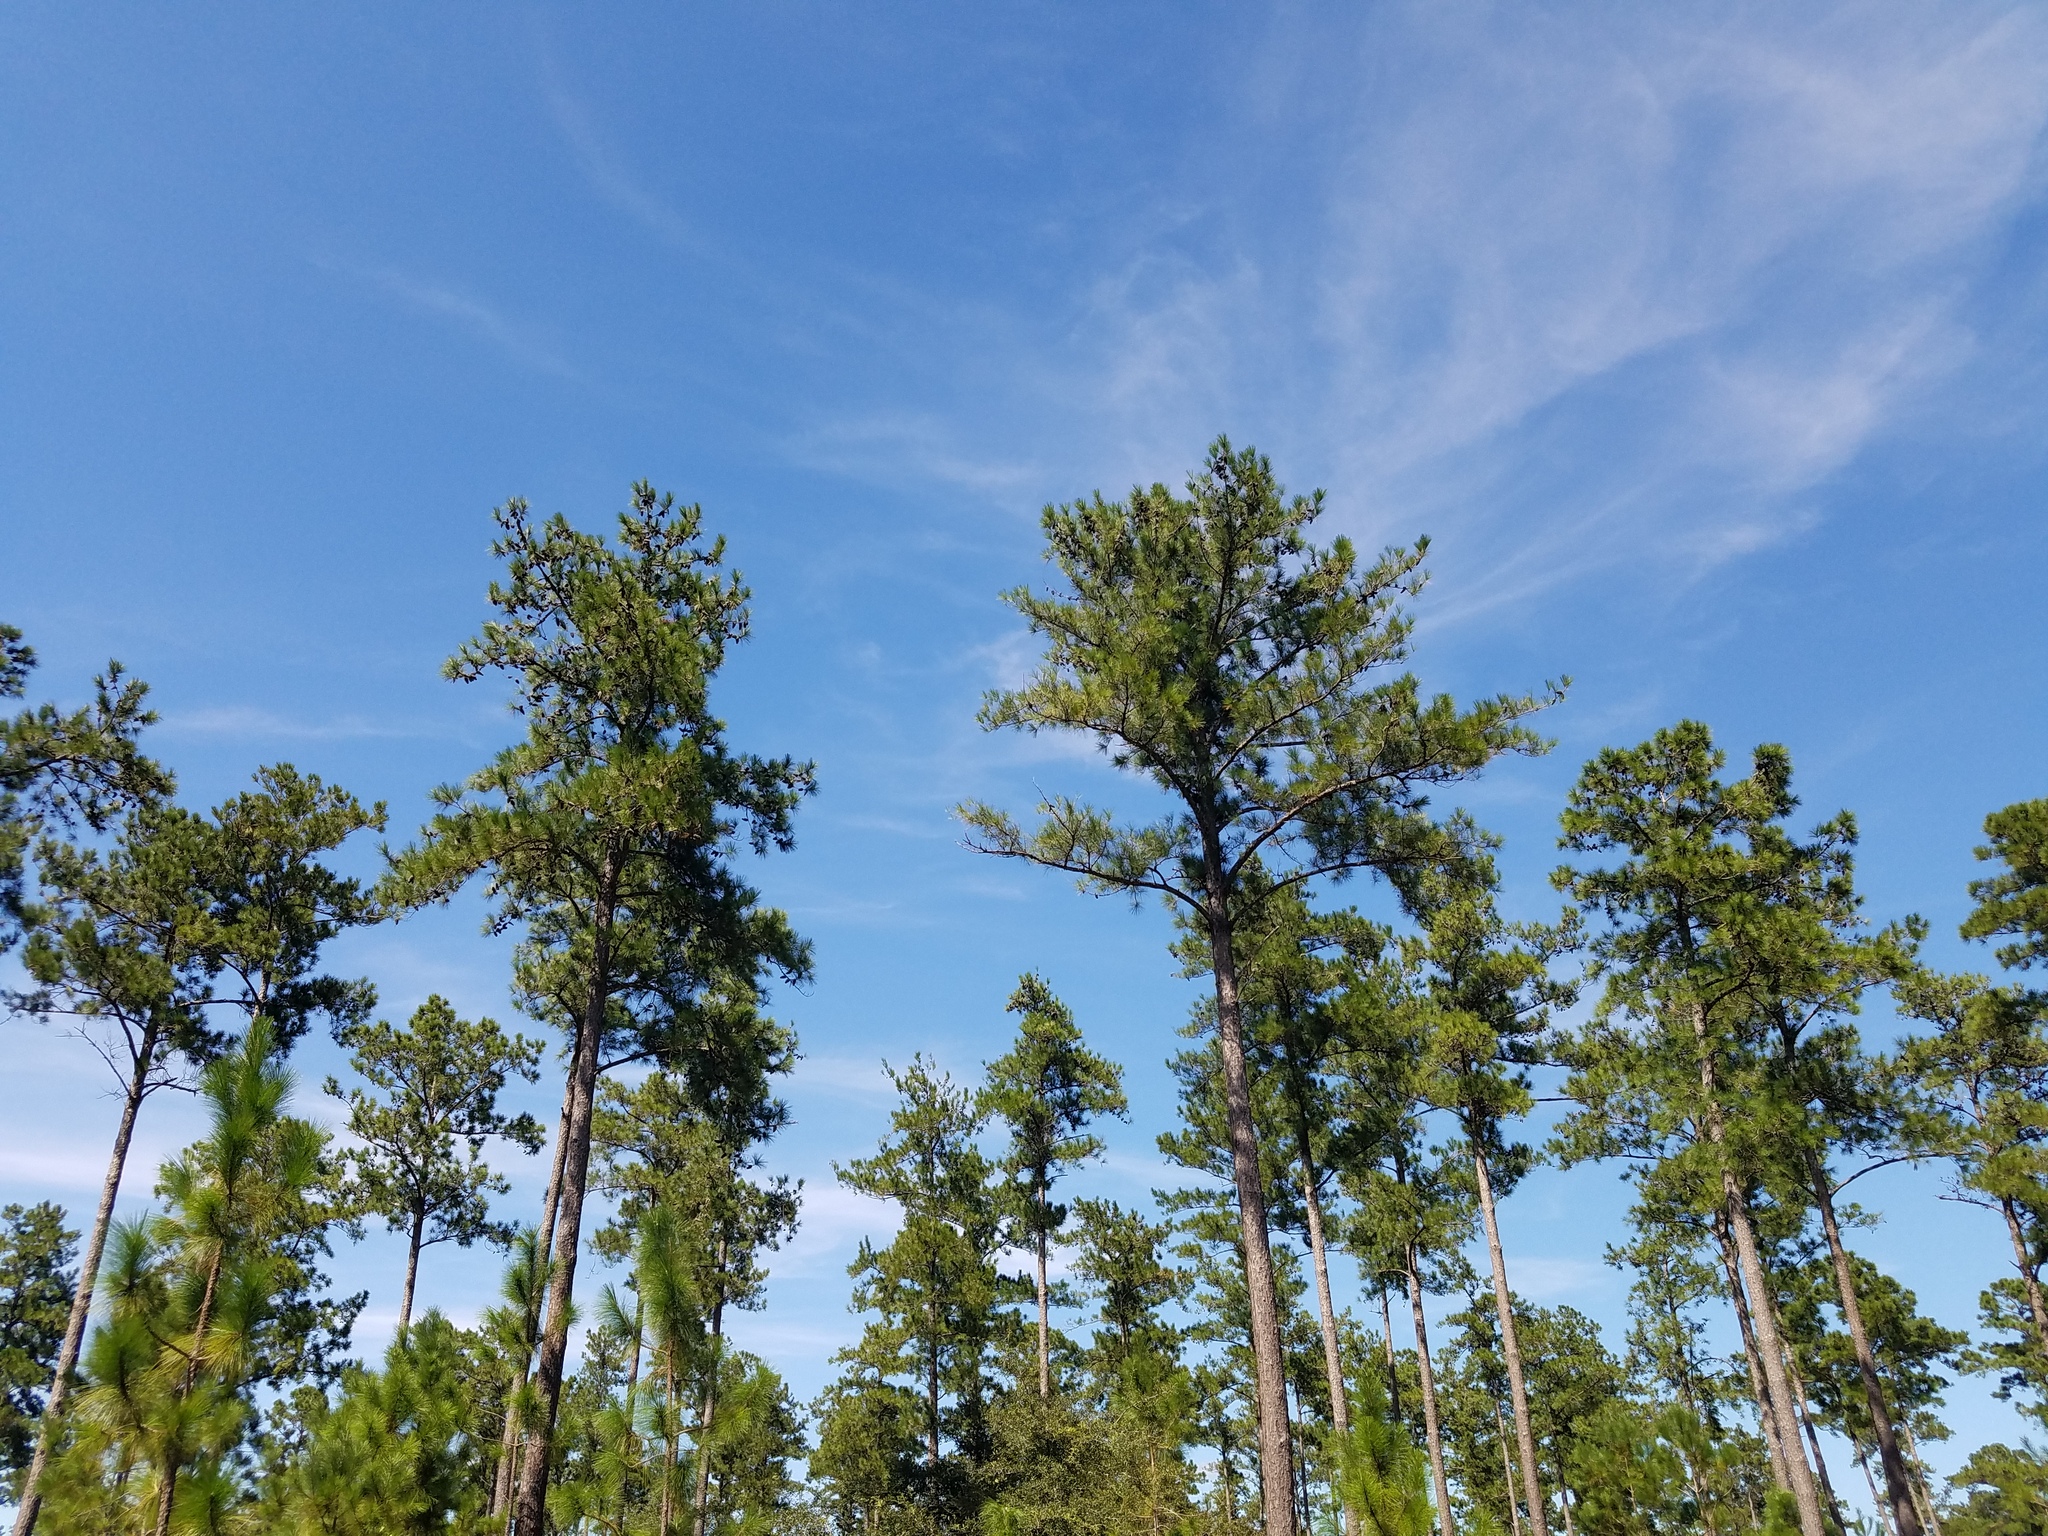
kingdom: Plantae
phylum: Tracheophyta
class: Pinopsida
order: Pinales
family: Pinaceae
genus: Pinus
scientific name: Pinus taeda
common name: Loblolly pine
